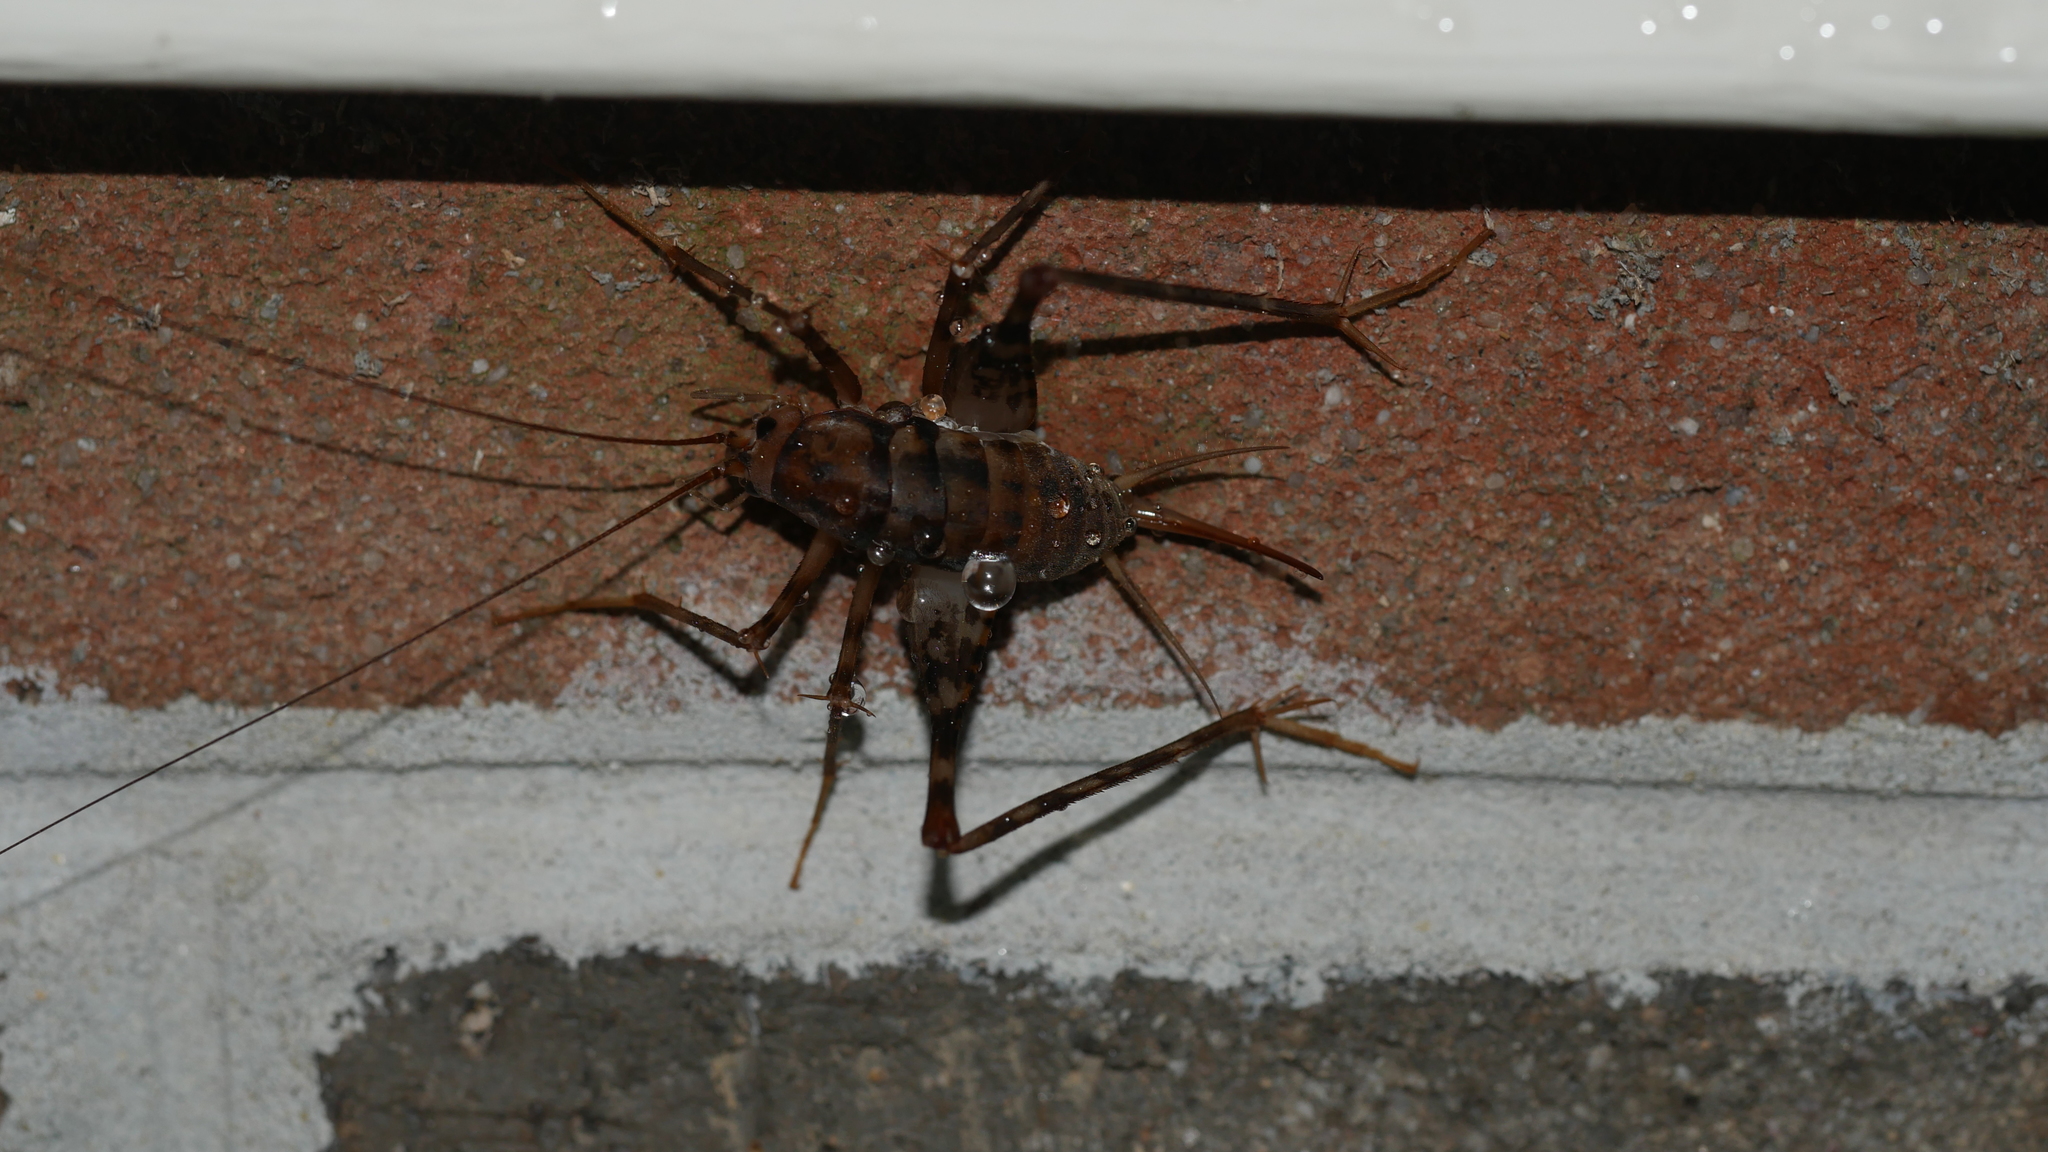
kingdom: Animalia
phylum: Arthropoda
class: Insecta
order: Orthoptera
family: Rhaphidophoridae
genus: Tachycines
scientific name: Tachycines asynamorus
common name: Greenhouse camel cricket
